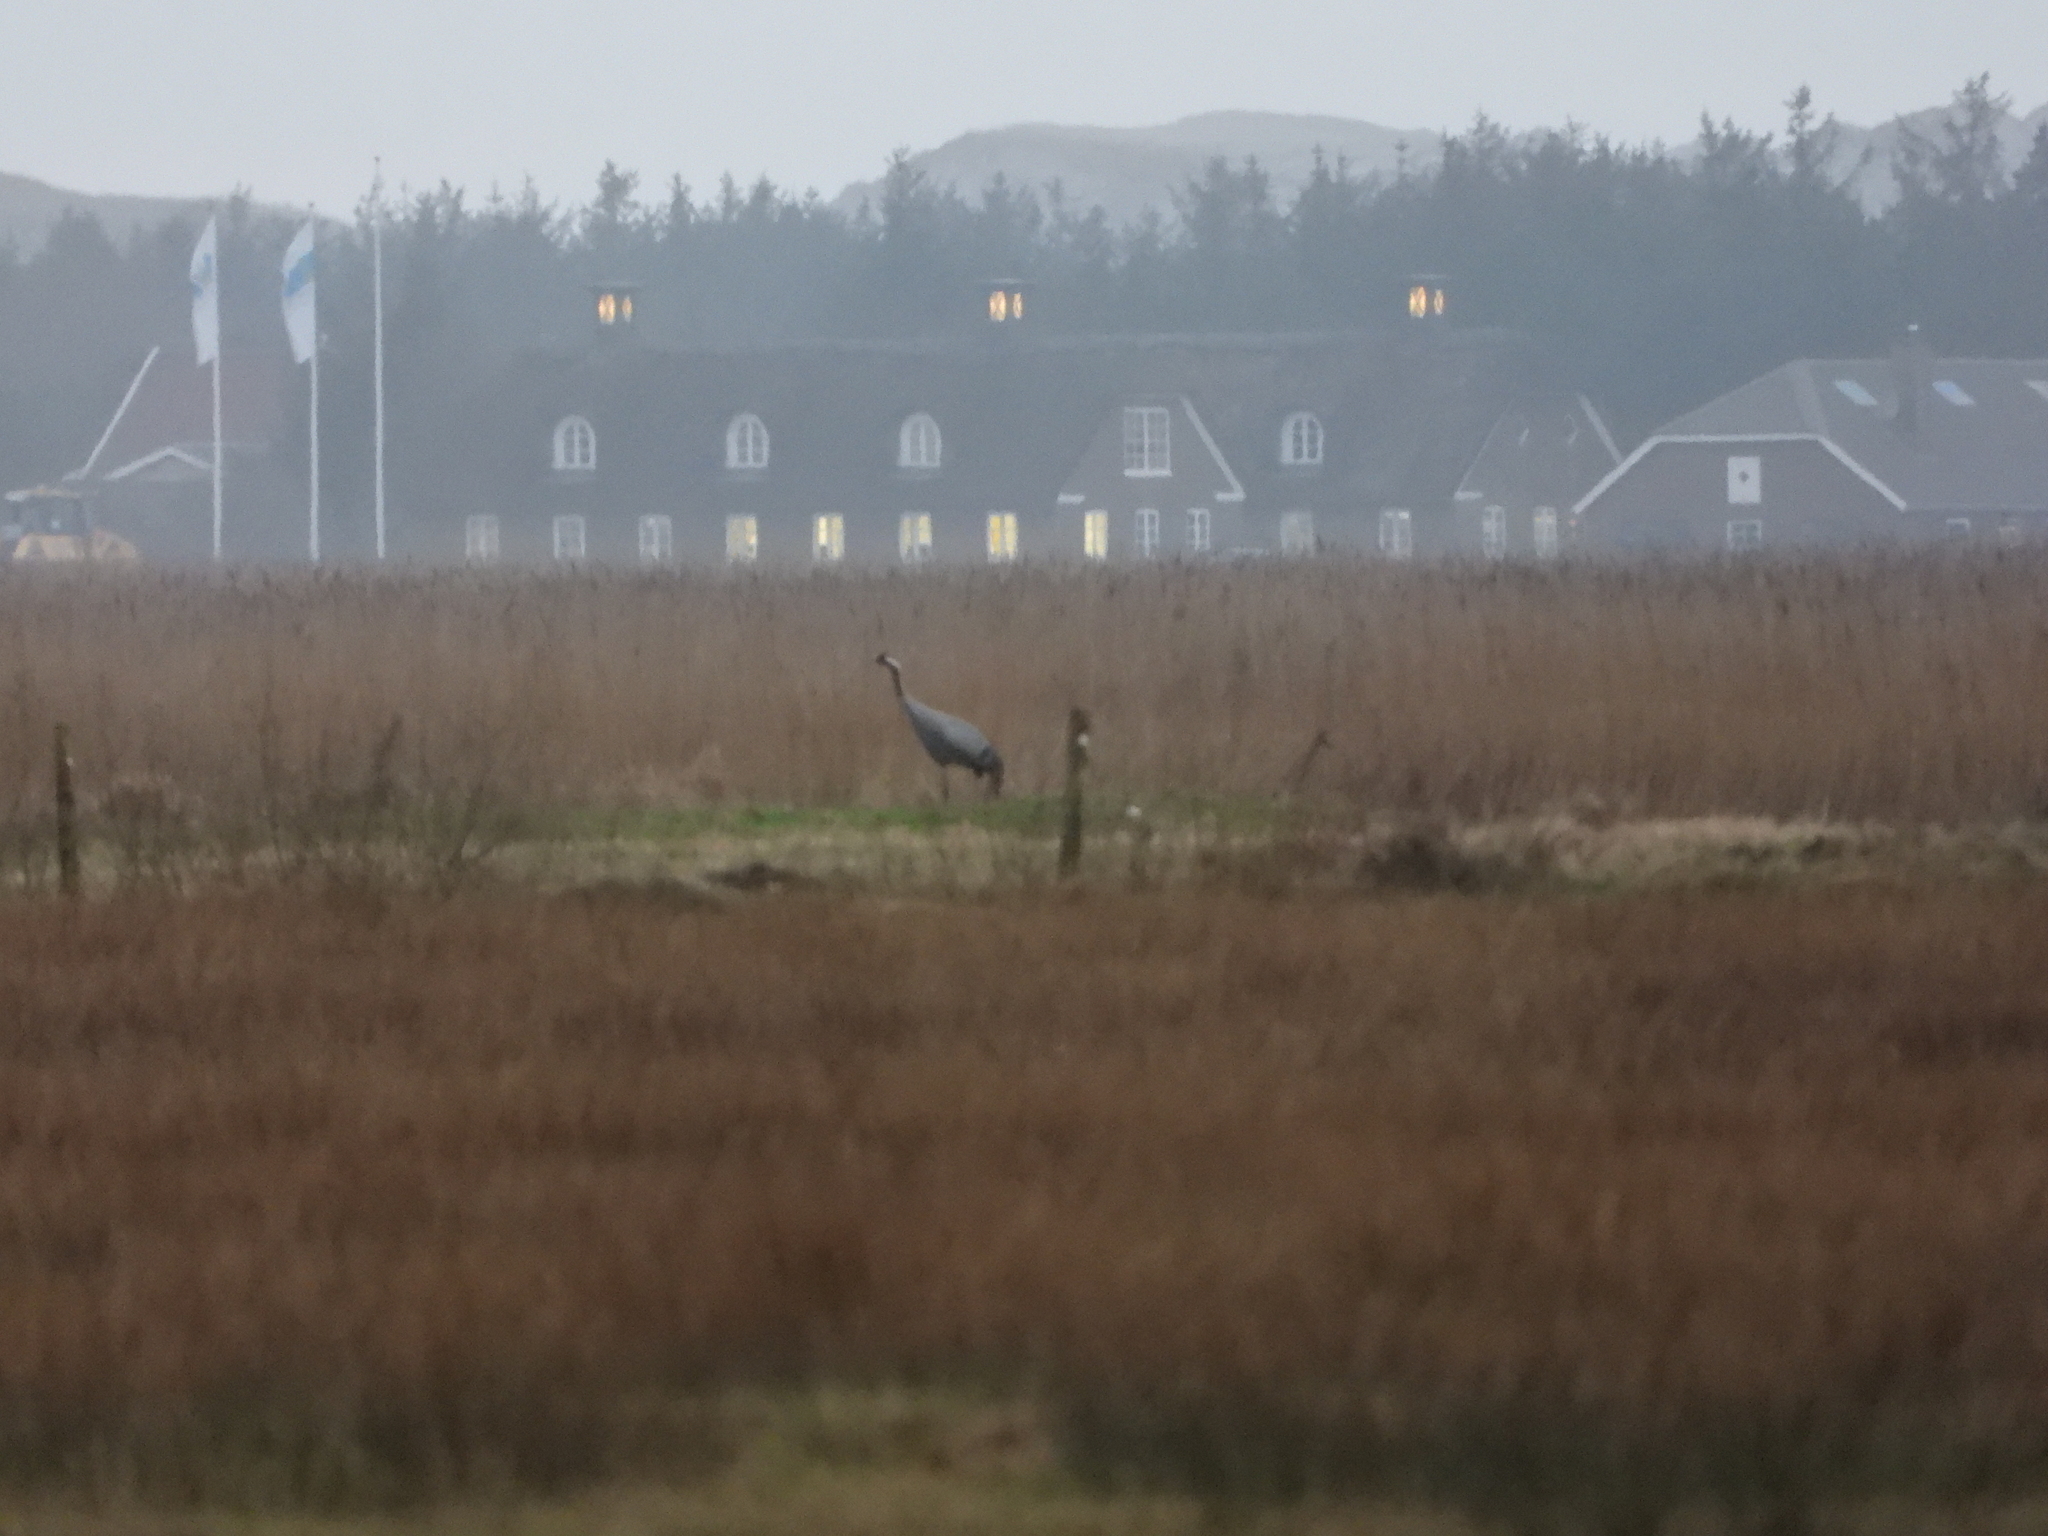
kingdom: Animalia
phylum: Chordata
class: Aves
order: Gruiformes
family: Gruidae
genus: Grus
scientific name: Grus grus
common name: Common crane
